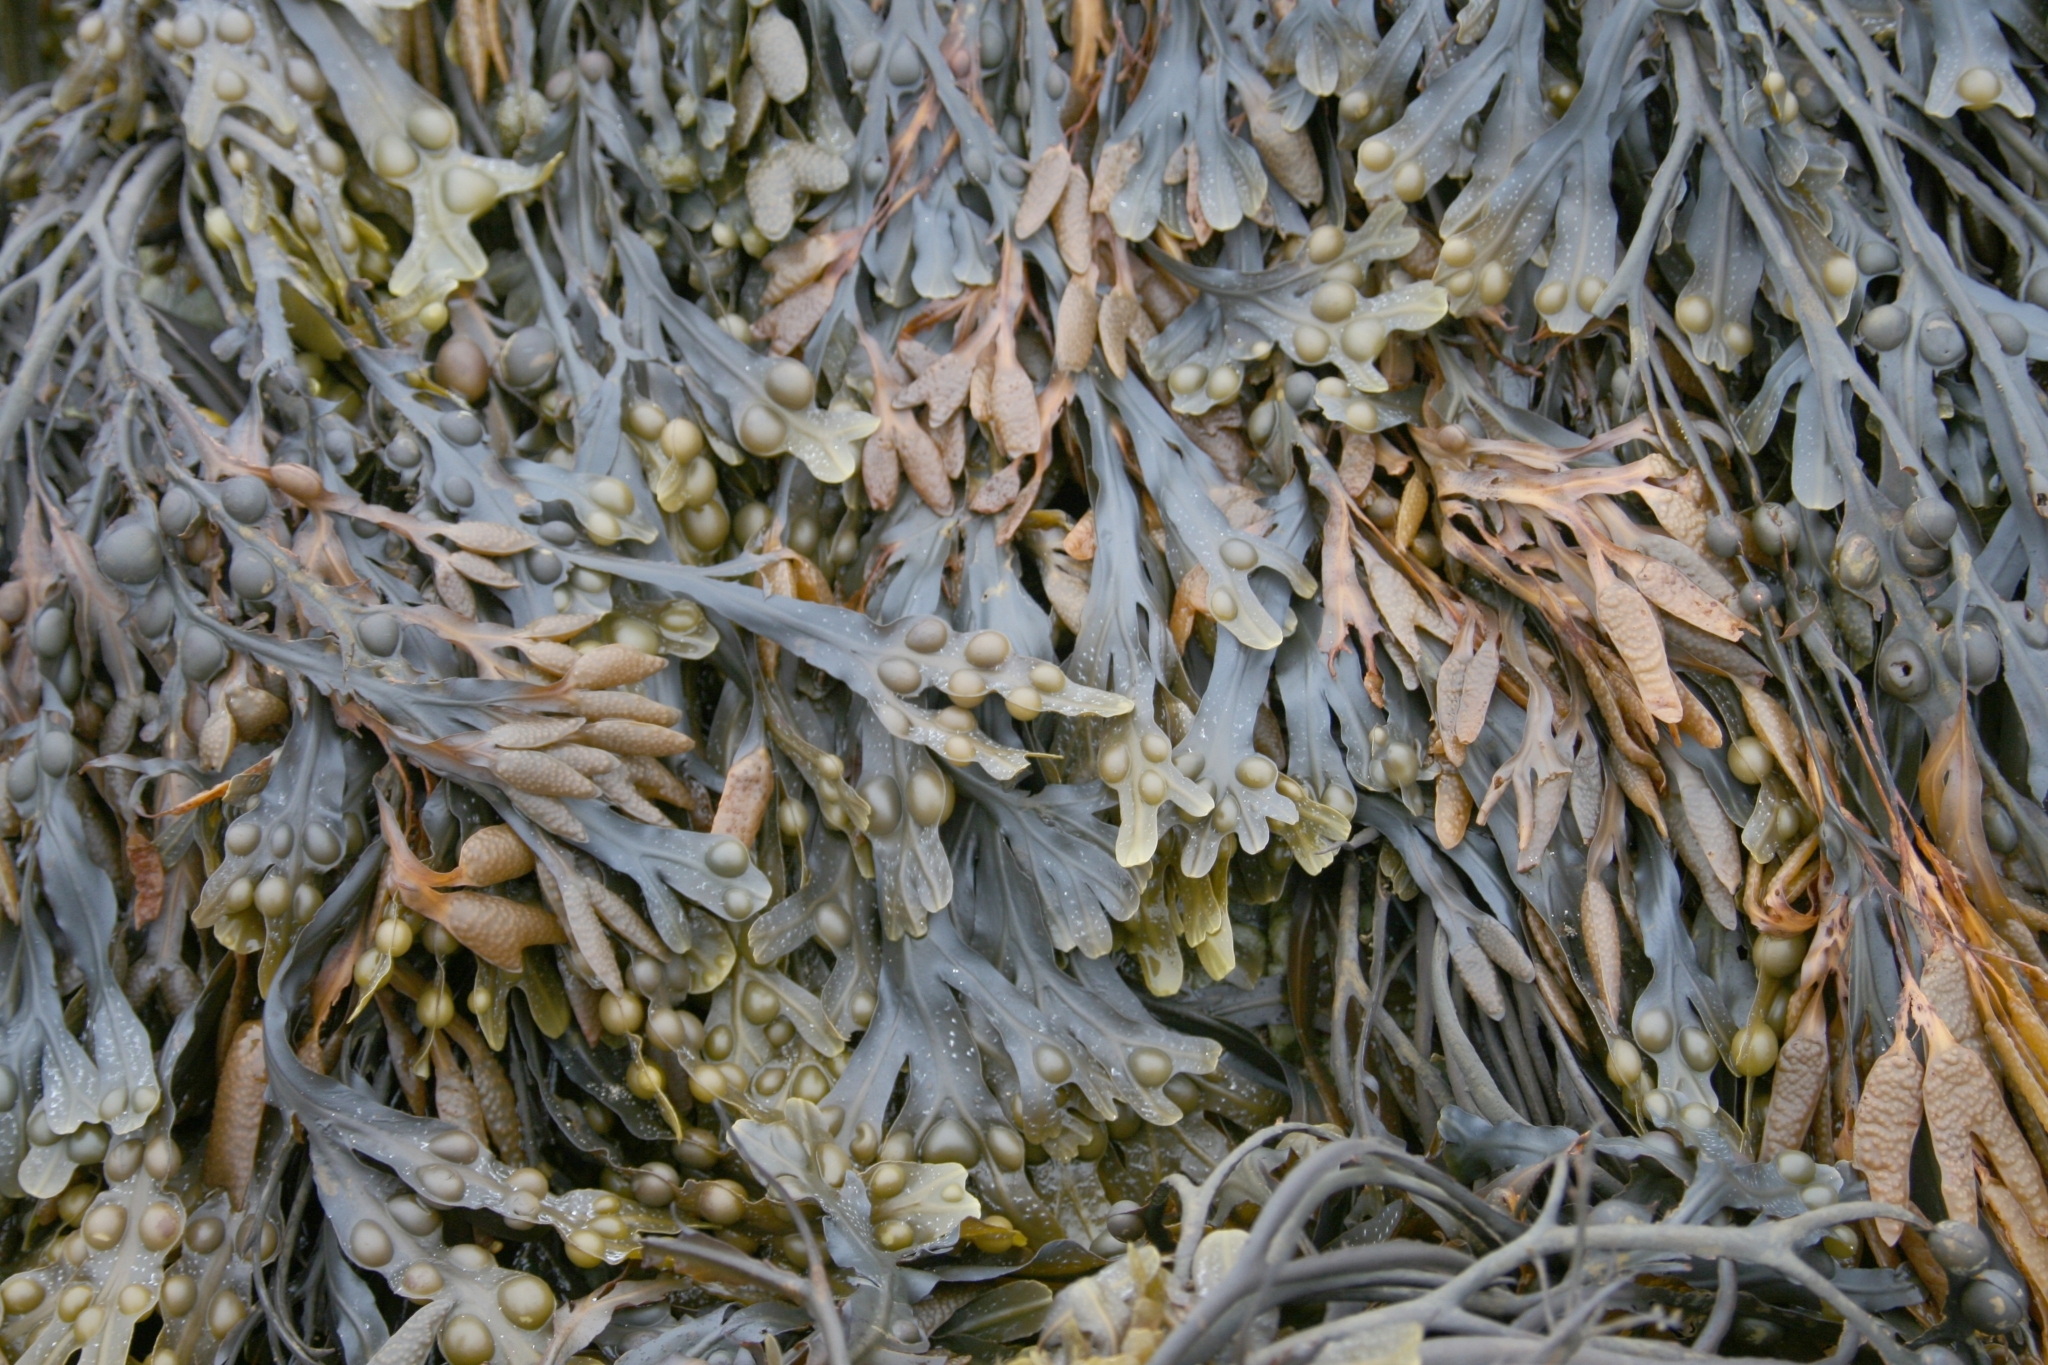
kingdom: Chromista
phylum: Ochrophyta
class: Phaeophyceae
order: Fucales
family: Fucaceae
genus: Fucus
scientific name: Fucus vesiculosus
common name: Bladder wrack
